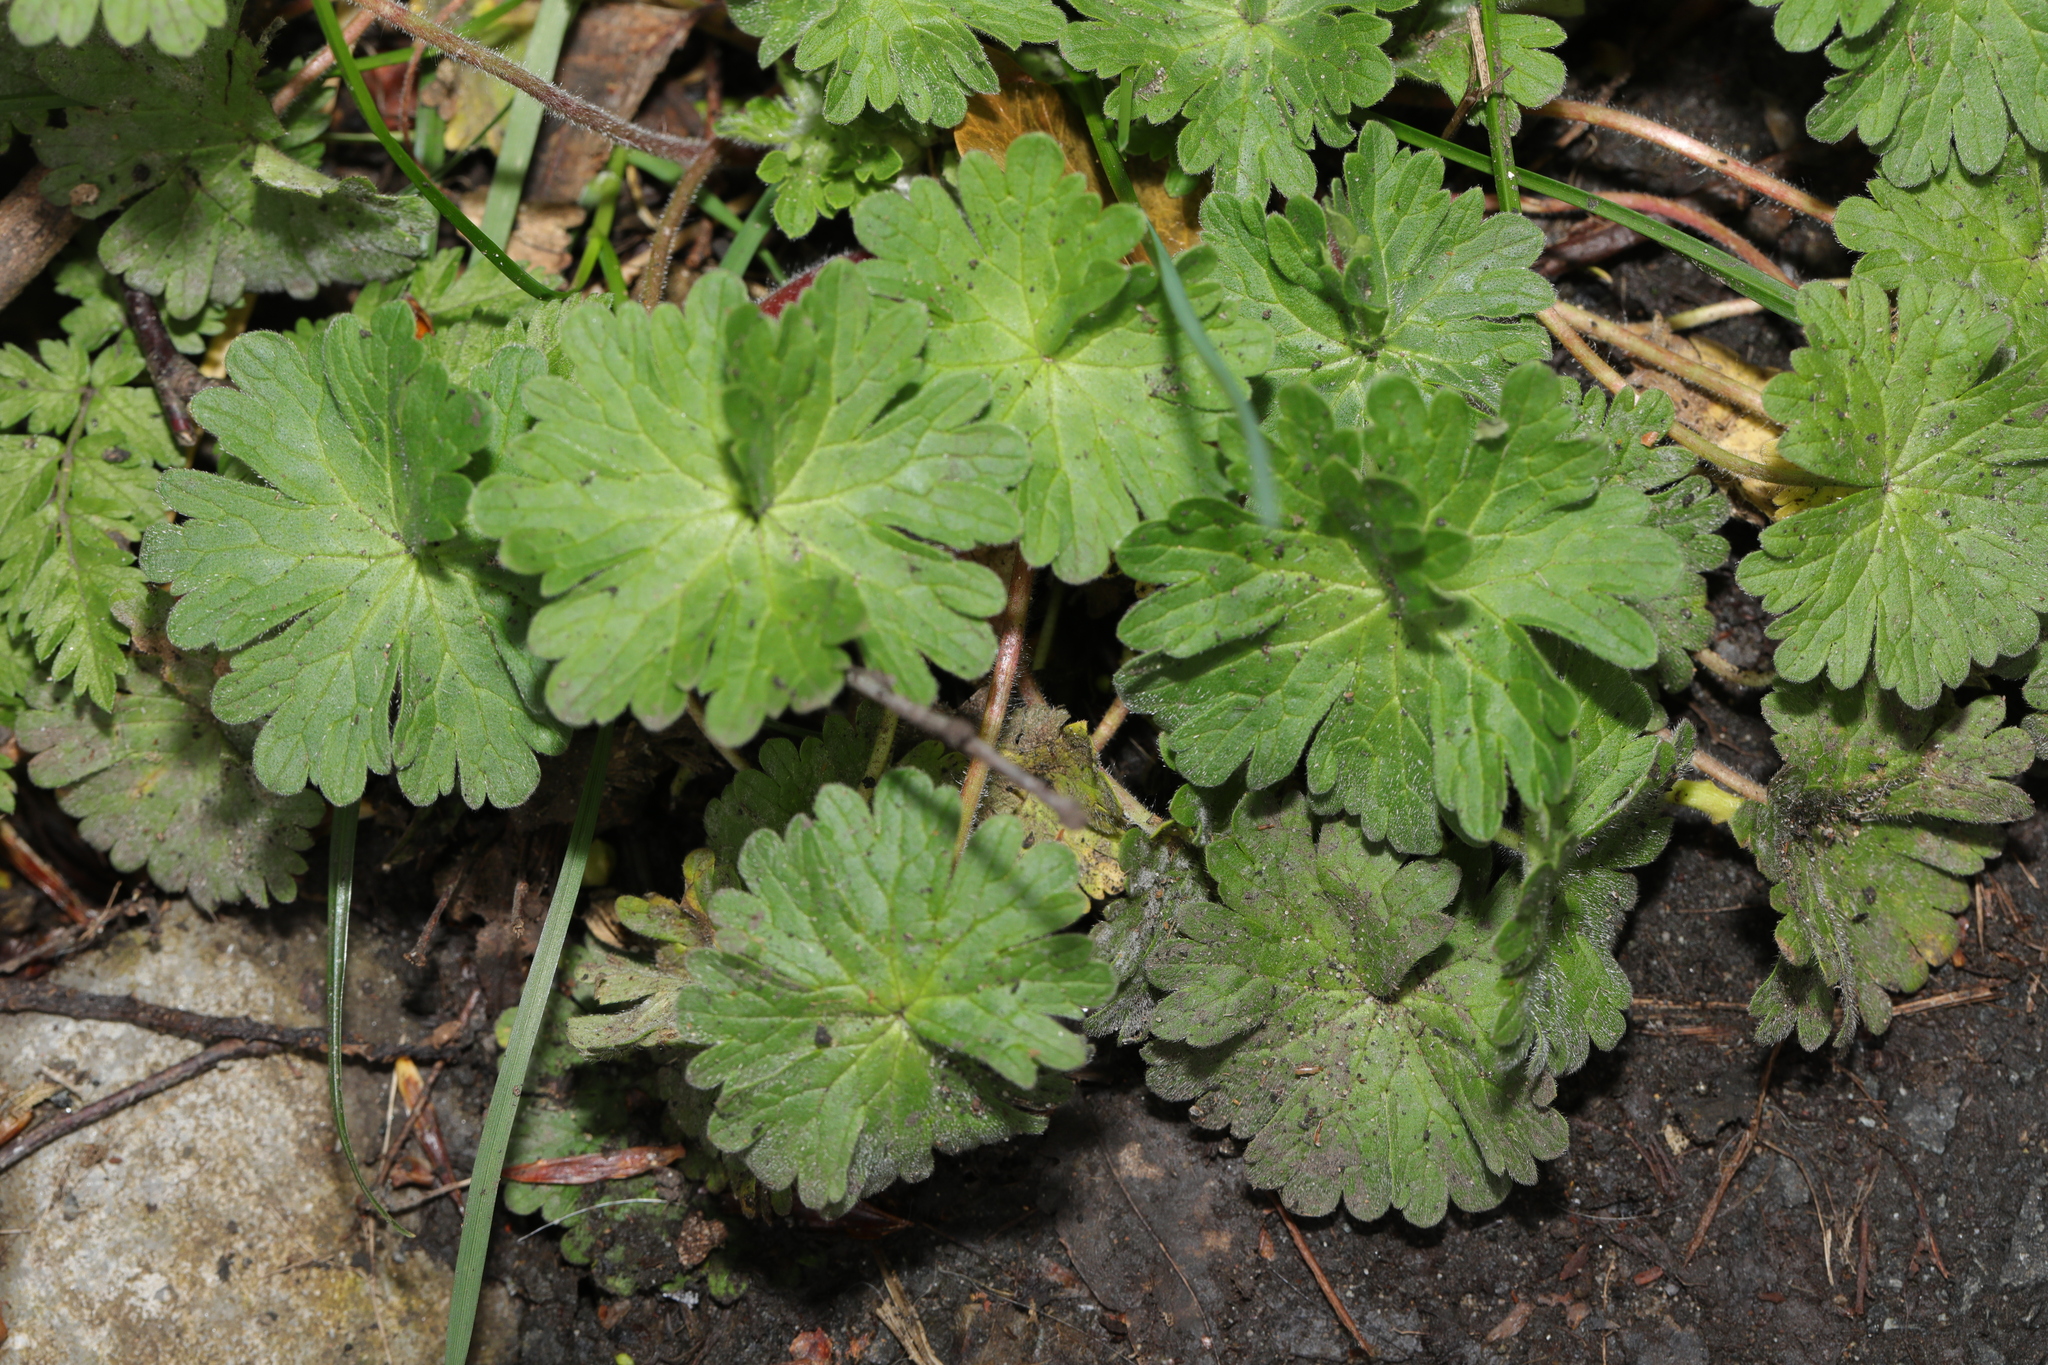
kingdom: Plantae
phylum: Tracheophyta
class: Magnoliopsida
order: Geraniales
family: Geraniaceae
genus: Geranium
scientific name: Geranium molle
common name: Dove's-foot crane's-bill
